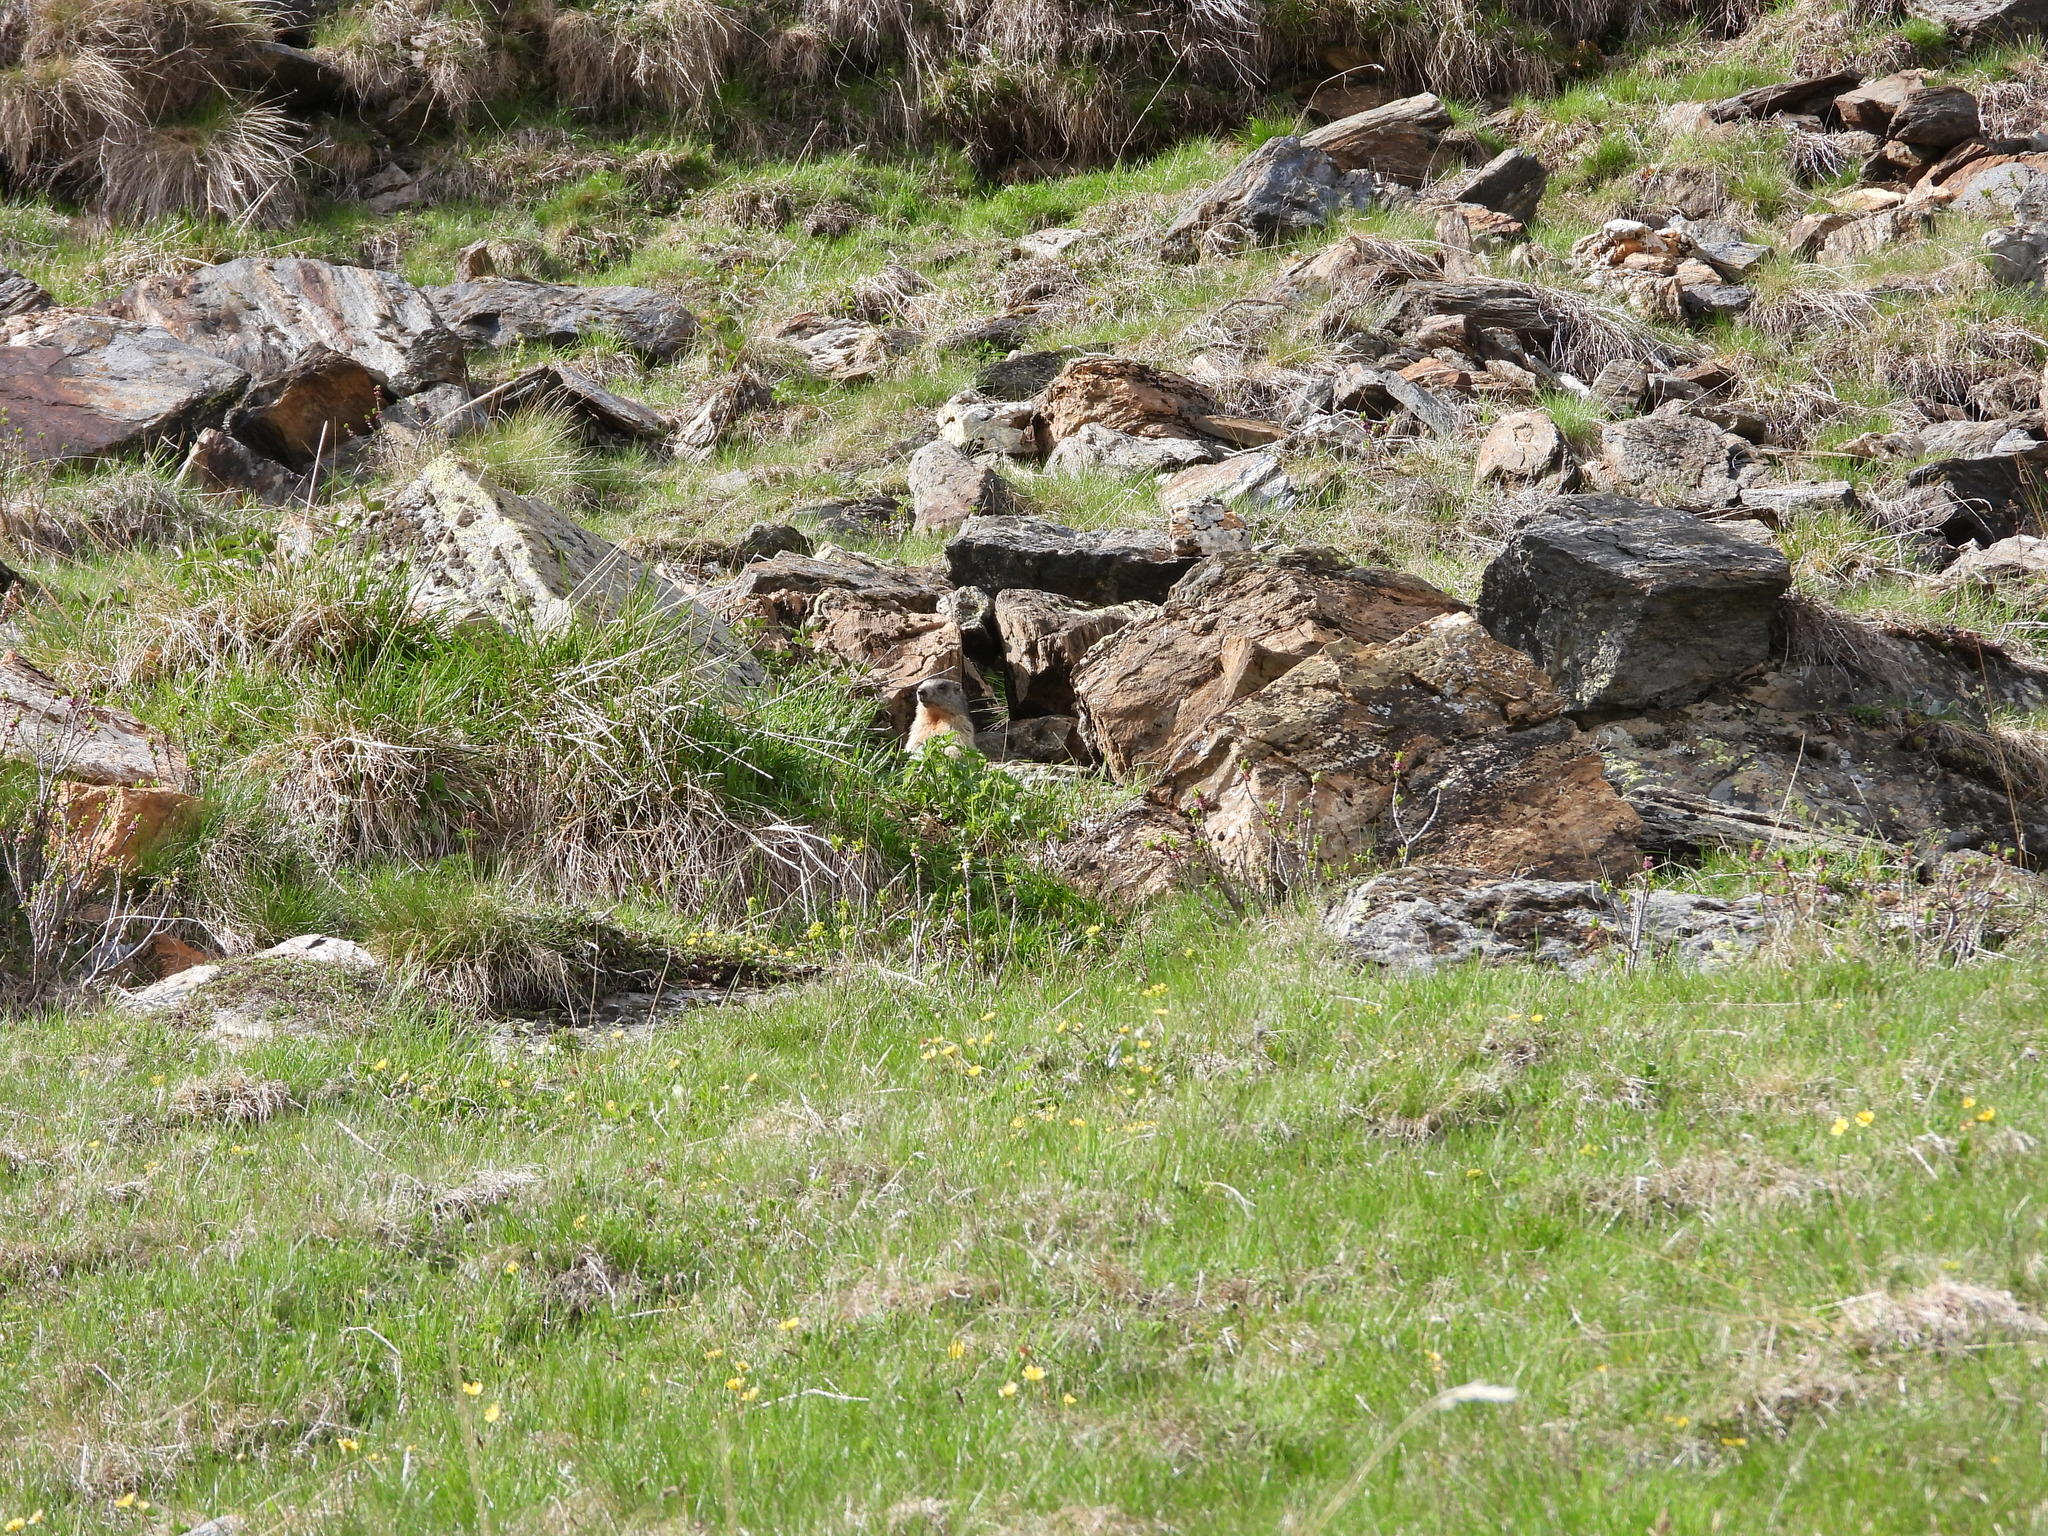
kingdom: Animalia
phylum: Chordata
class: Mammalia
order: Rodentia
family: Sciuridae
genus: Marmota
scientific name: Marmota marmota
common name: Alpine marmot
